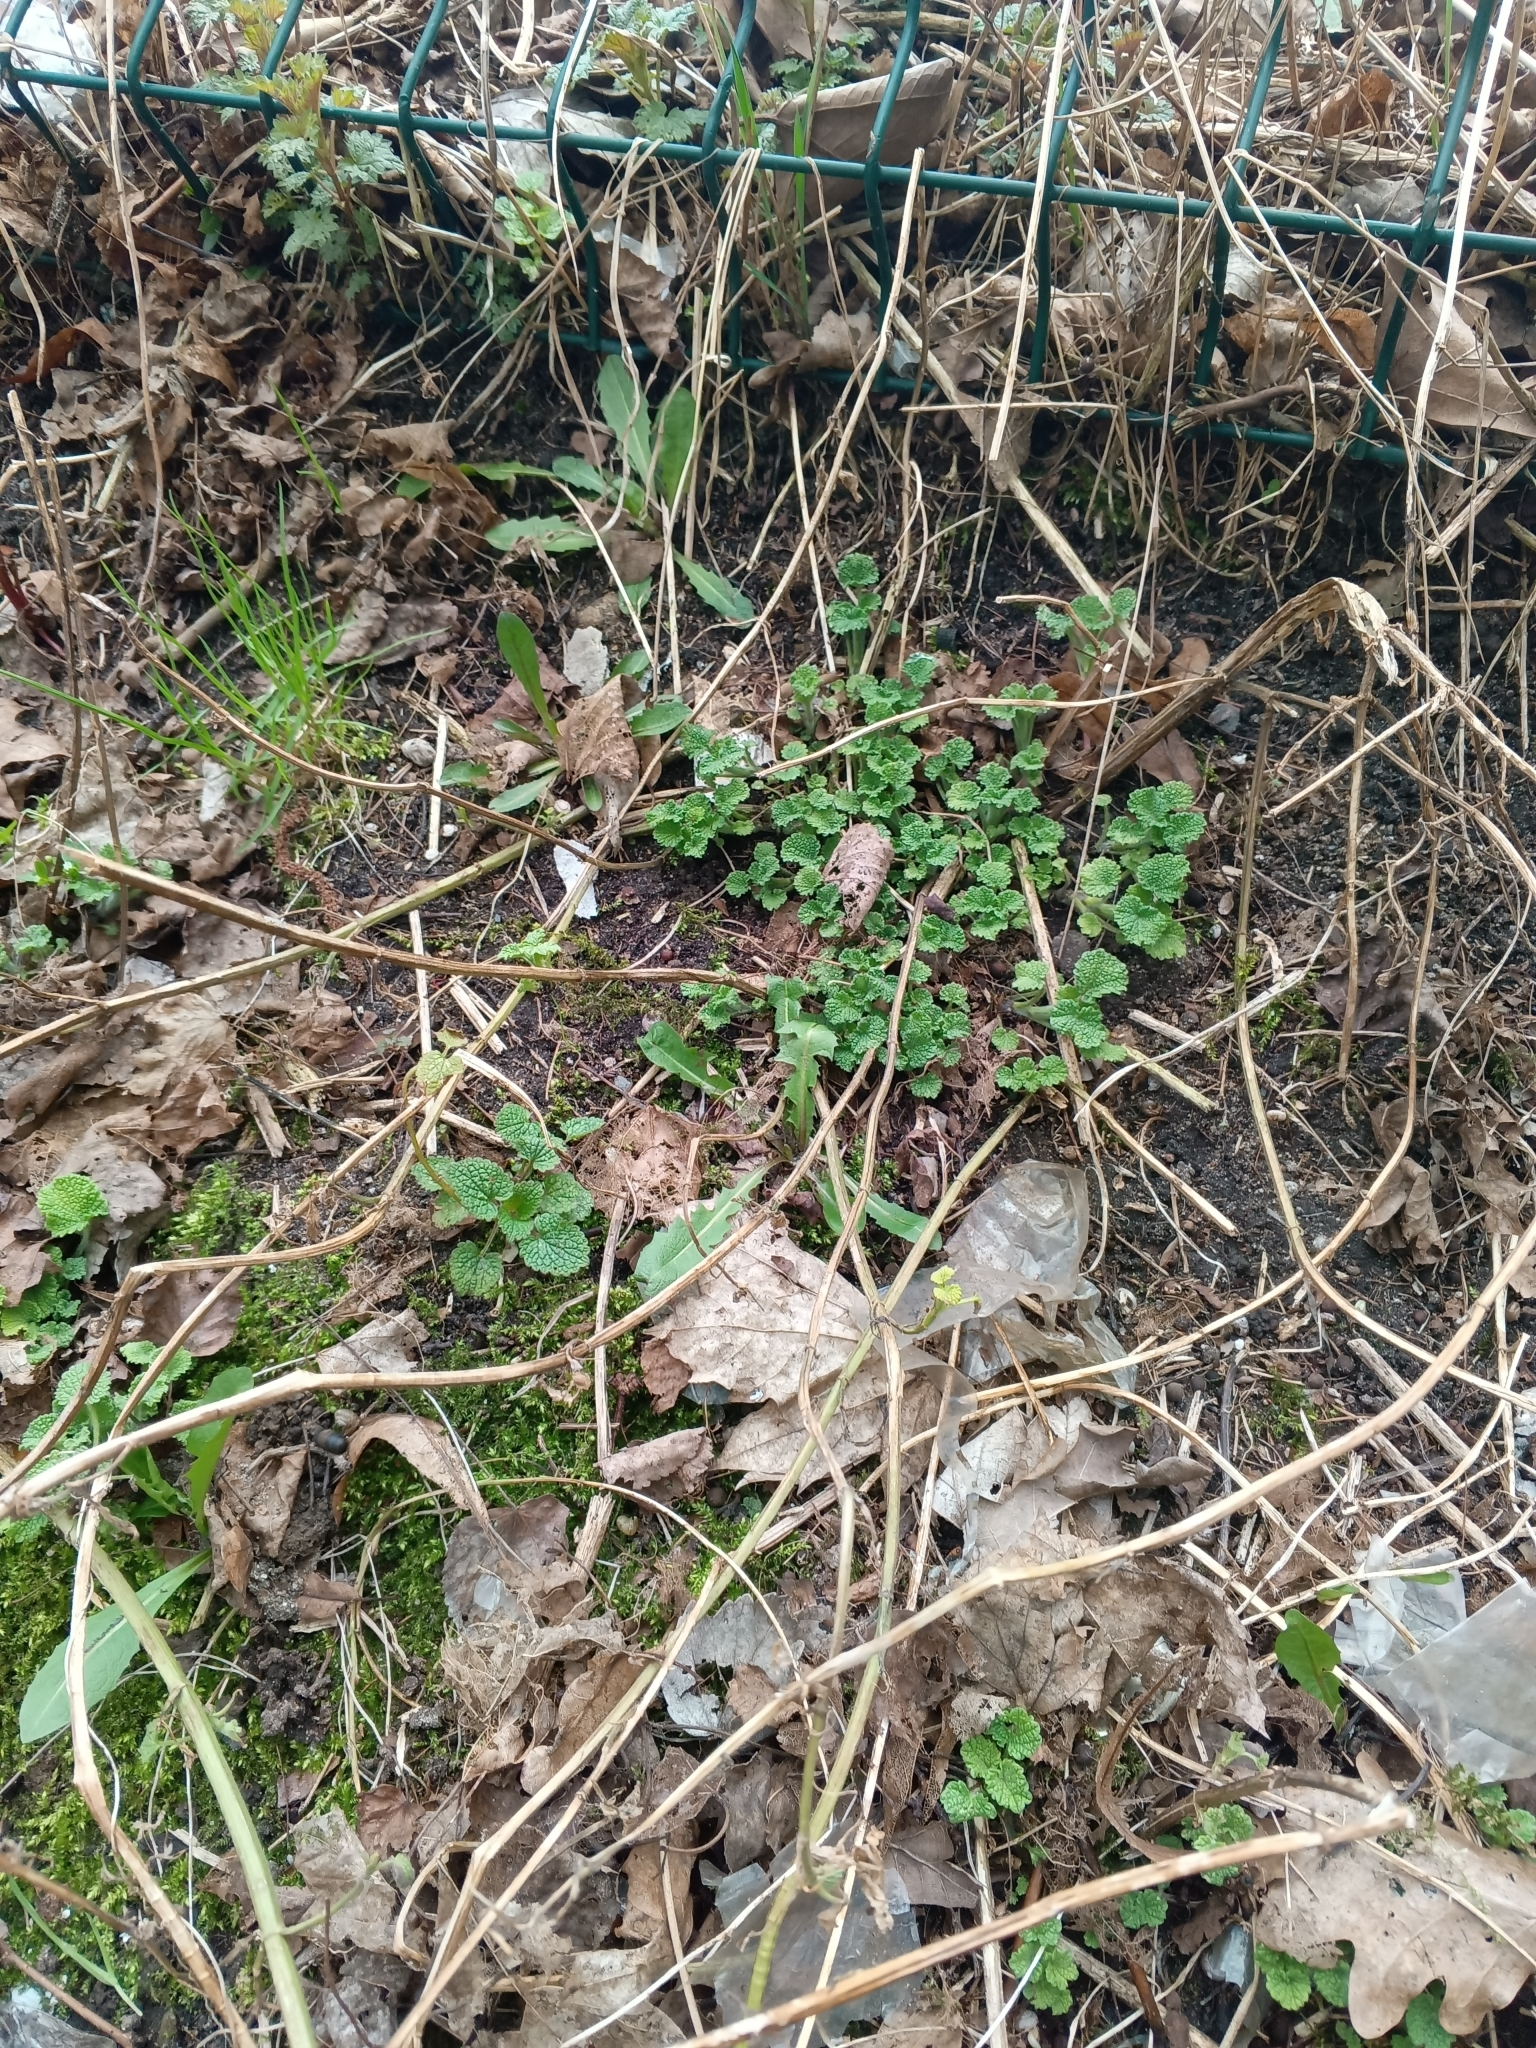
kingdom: Plantae
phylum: Tracheophyta
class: Magnoliopsida
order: Lamiales
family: Lamiaceae
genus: Ballota
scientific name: Ballota nigra
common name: Black horehound
